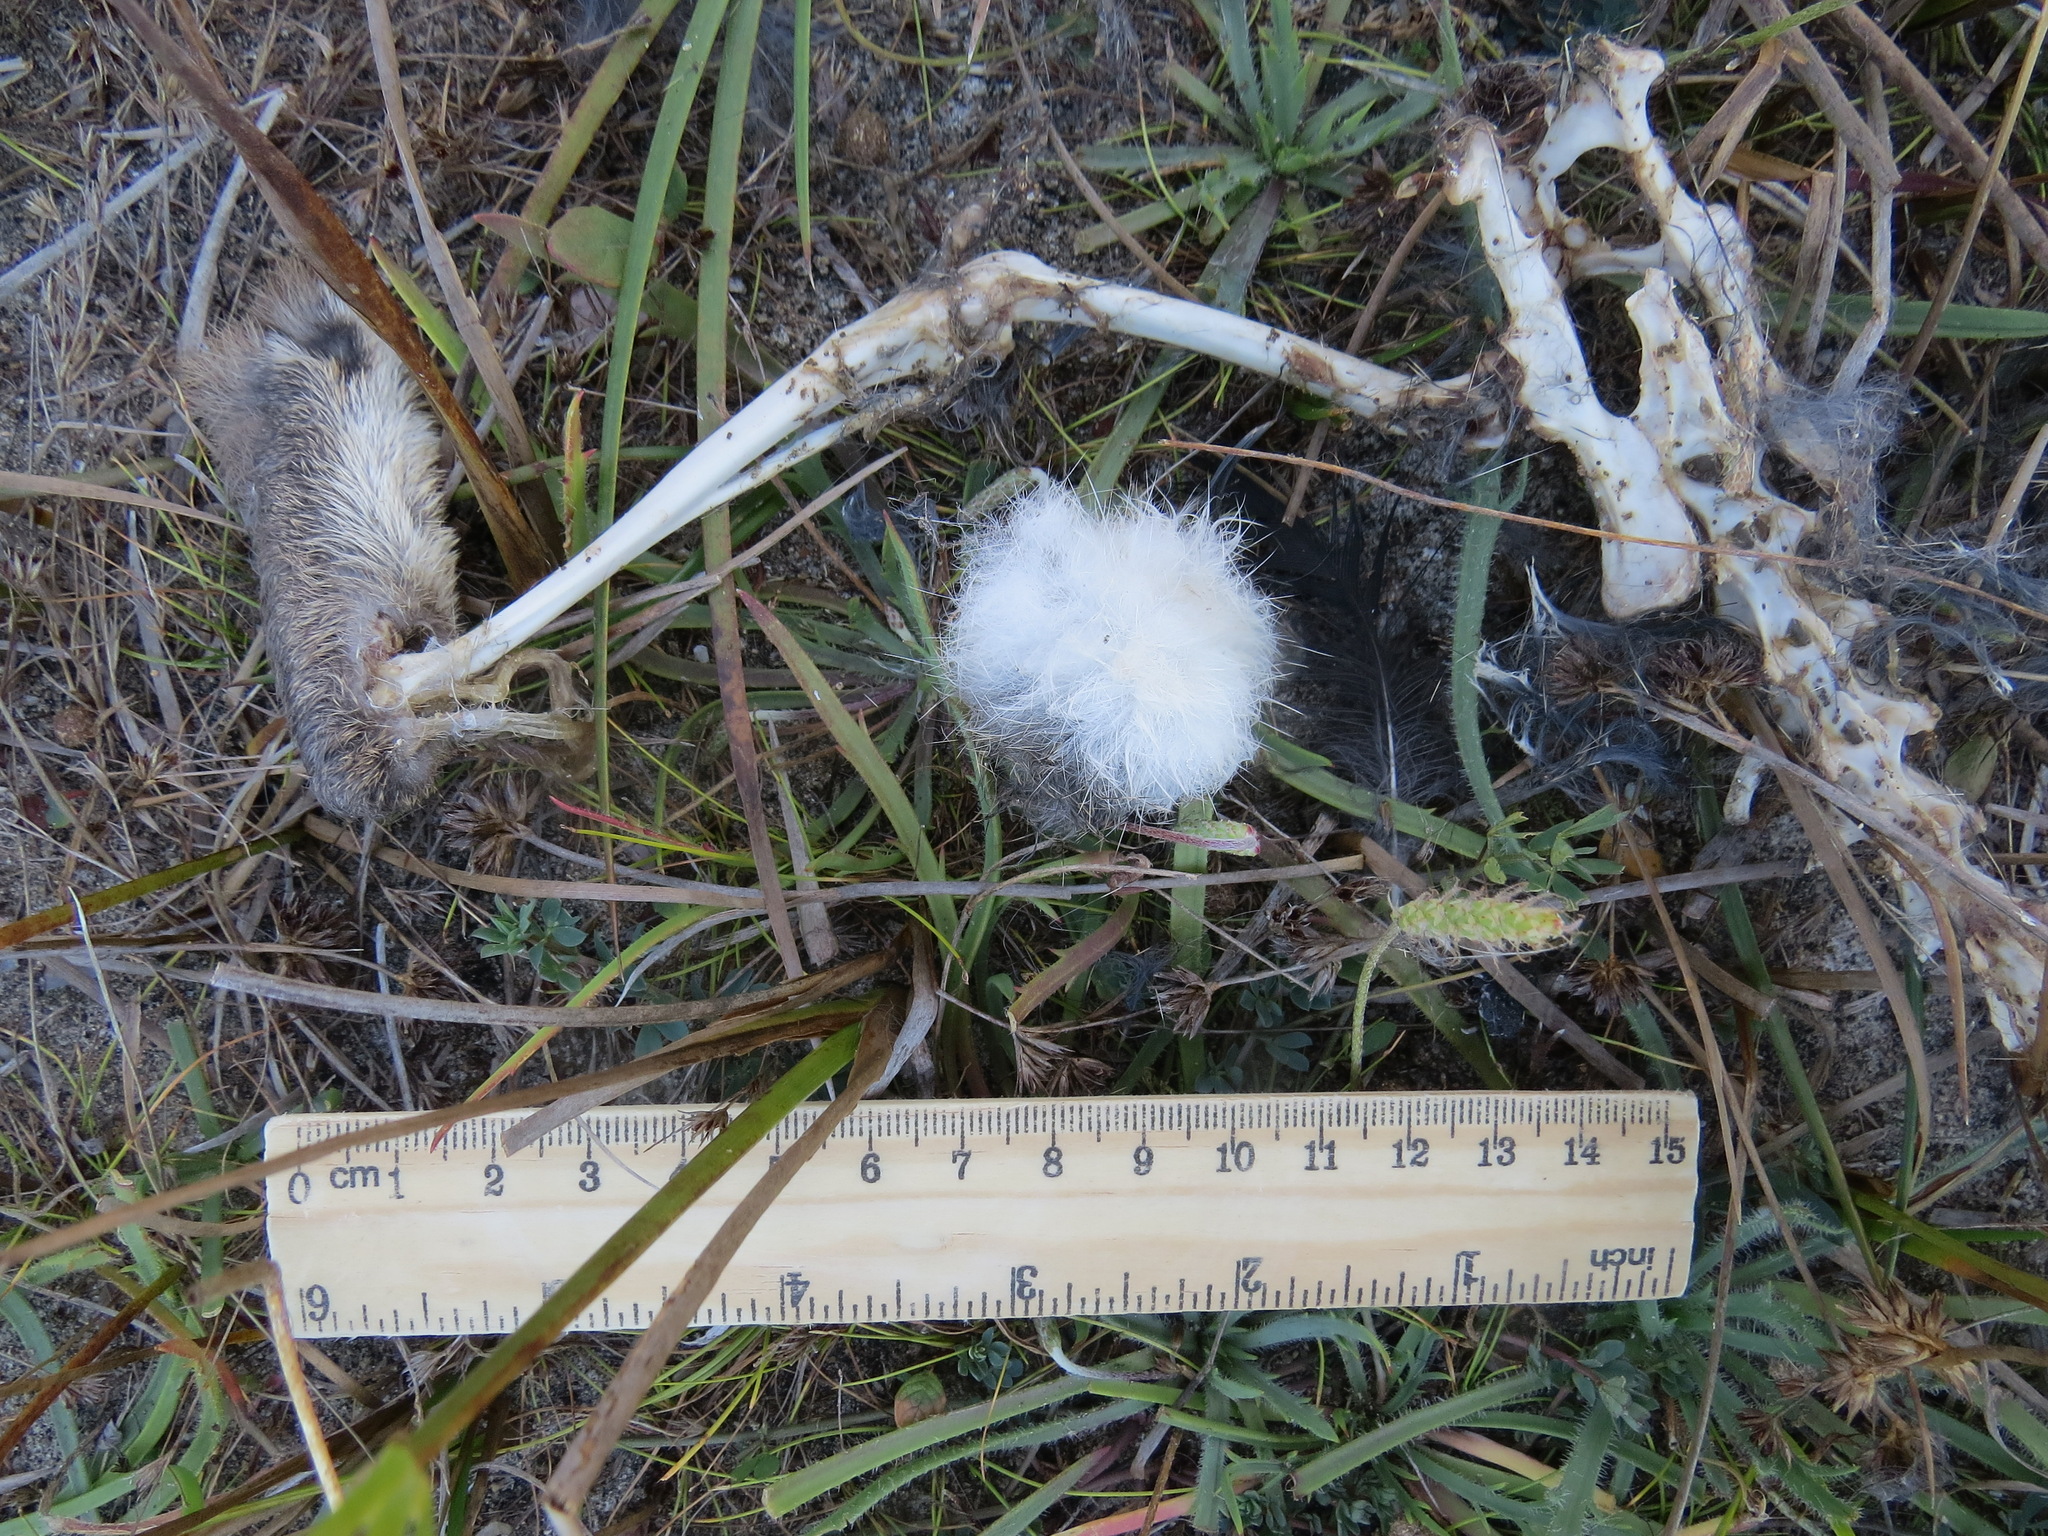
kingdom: Animalia
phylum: Chordata
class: Mammalia
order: Lagomorpha
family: Leporidae
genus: Sylvilagus
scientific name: Sylvilagus bachmani
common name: Brush rabbit
